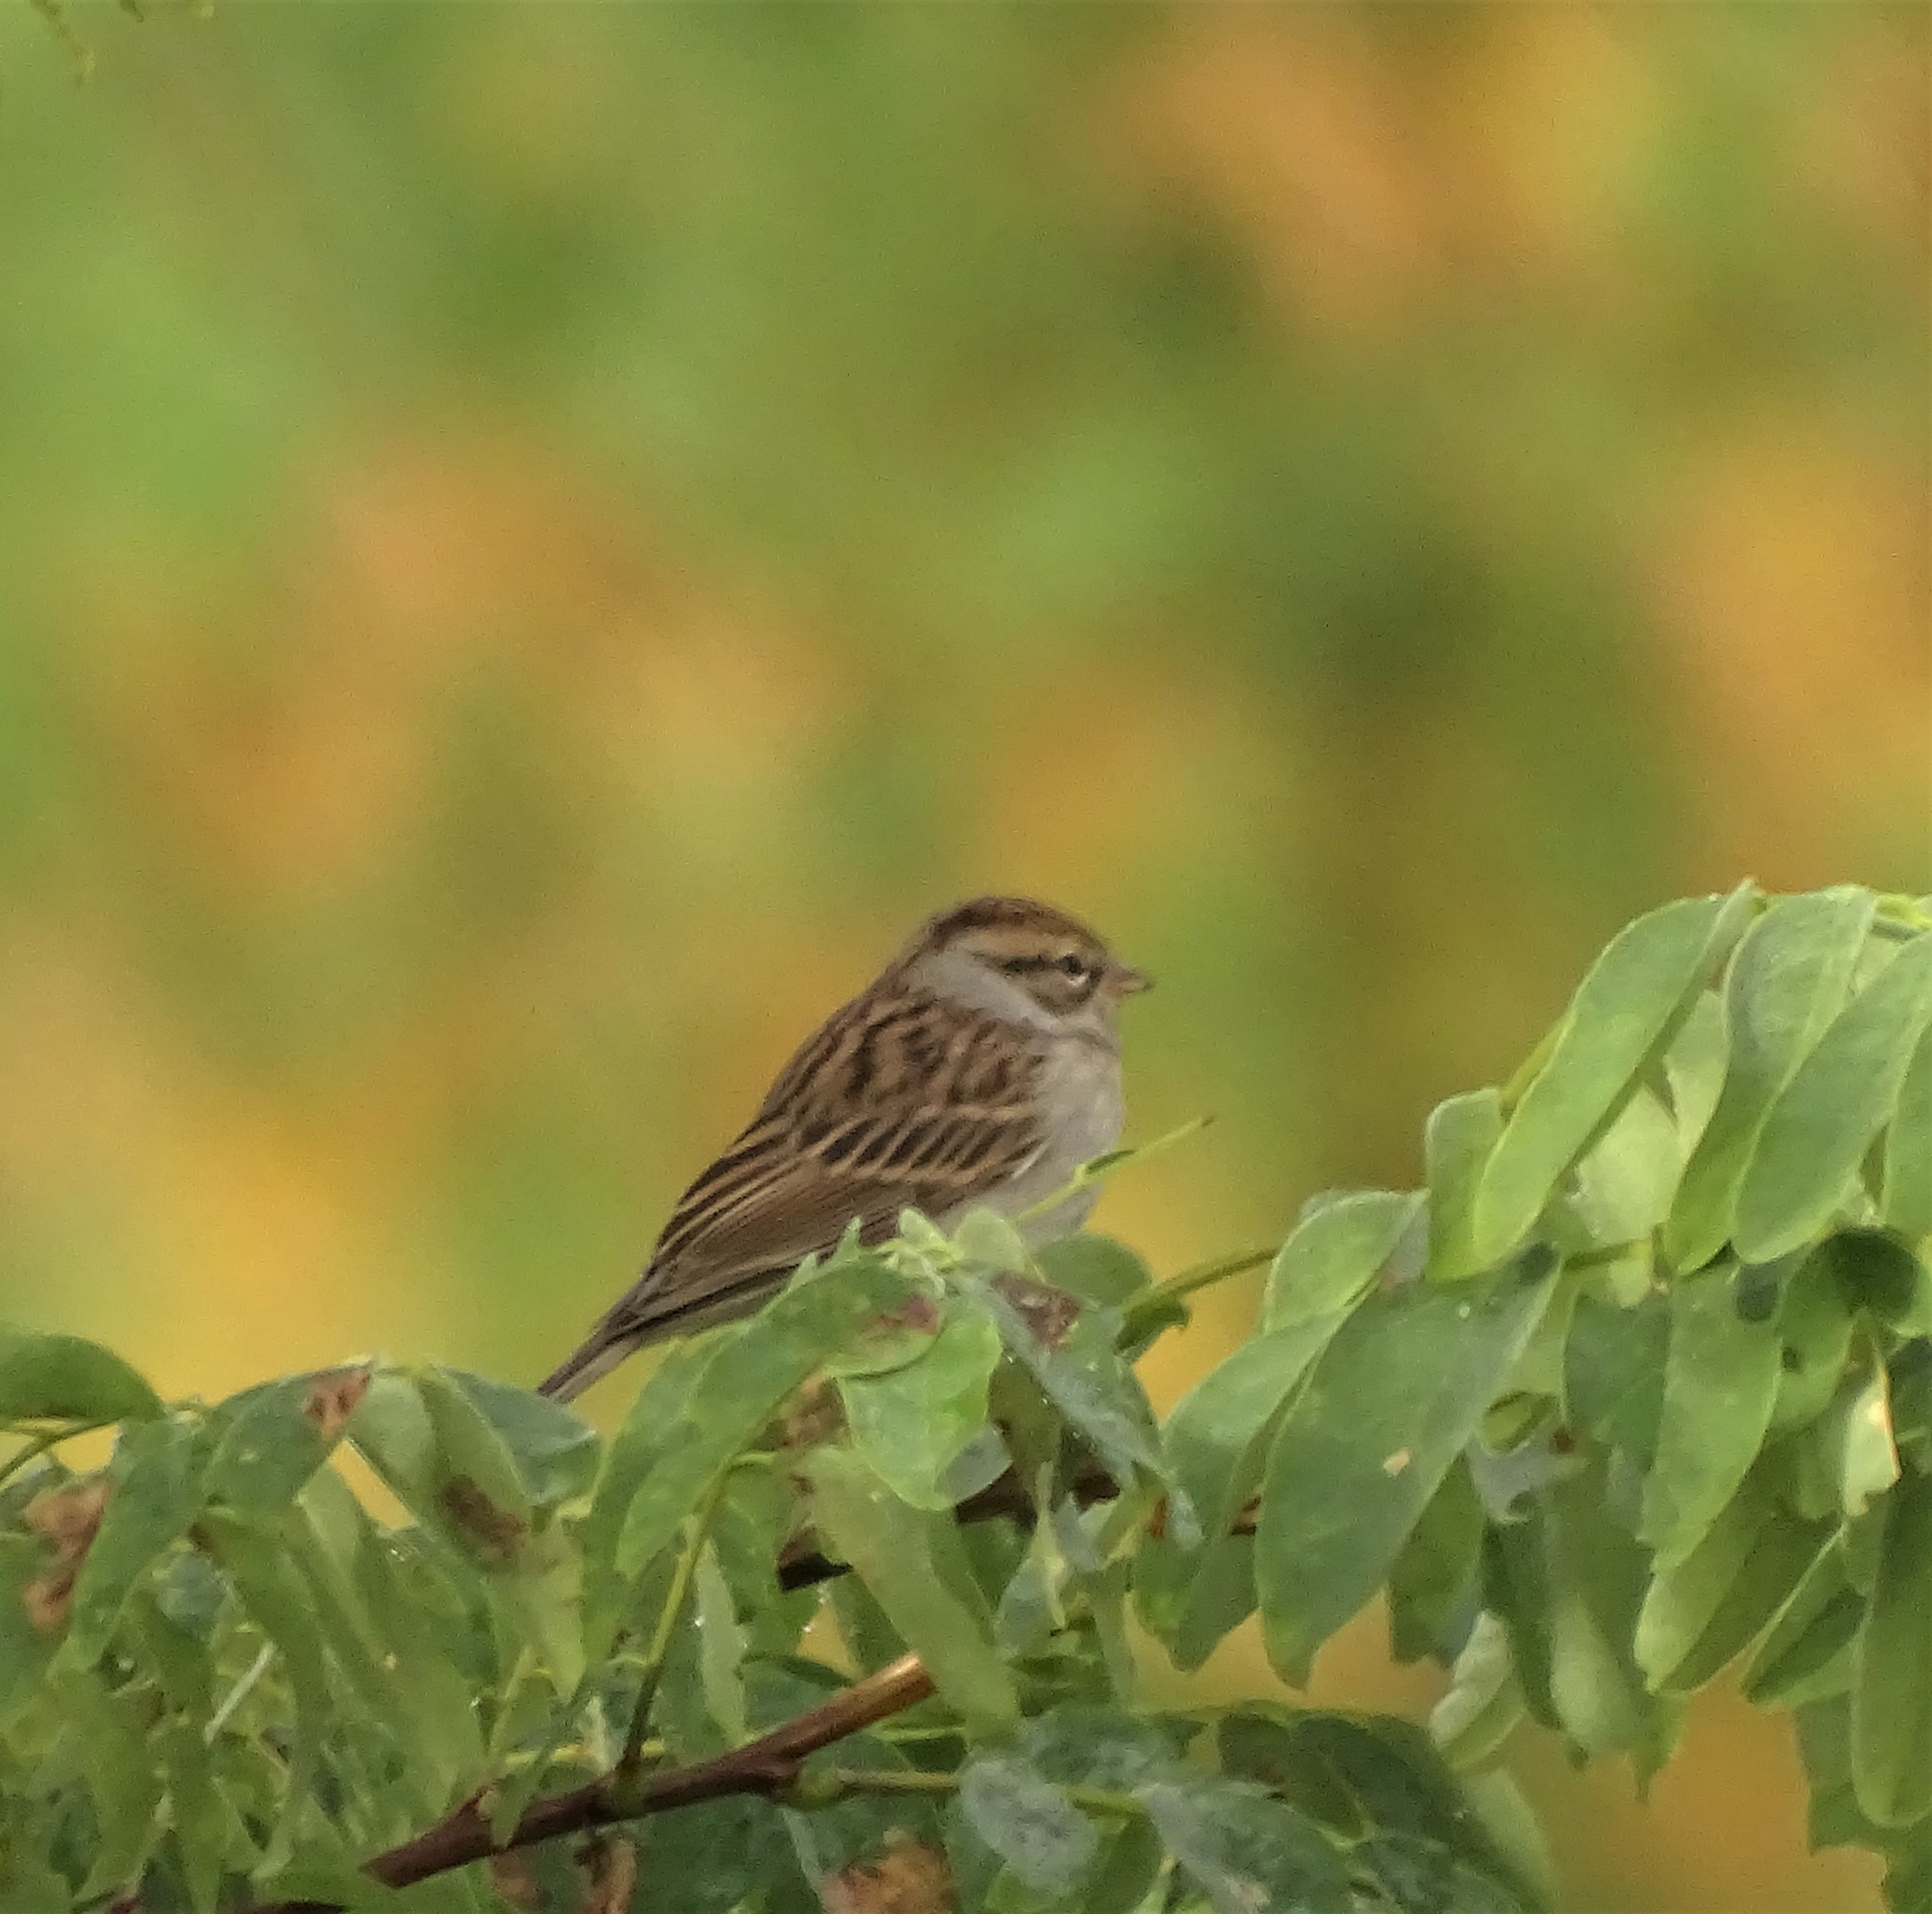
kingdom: Animalia
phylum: Chordata
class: Aves
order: Passeriformes
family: Passerellidae
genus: Spizella
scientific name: Spizella passerina
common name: Chipping sparrow
